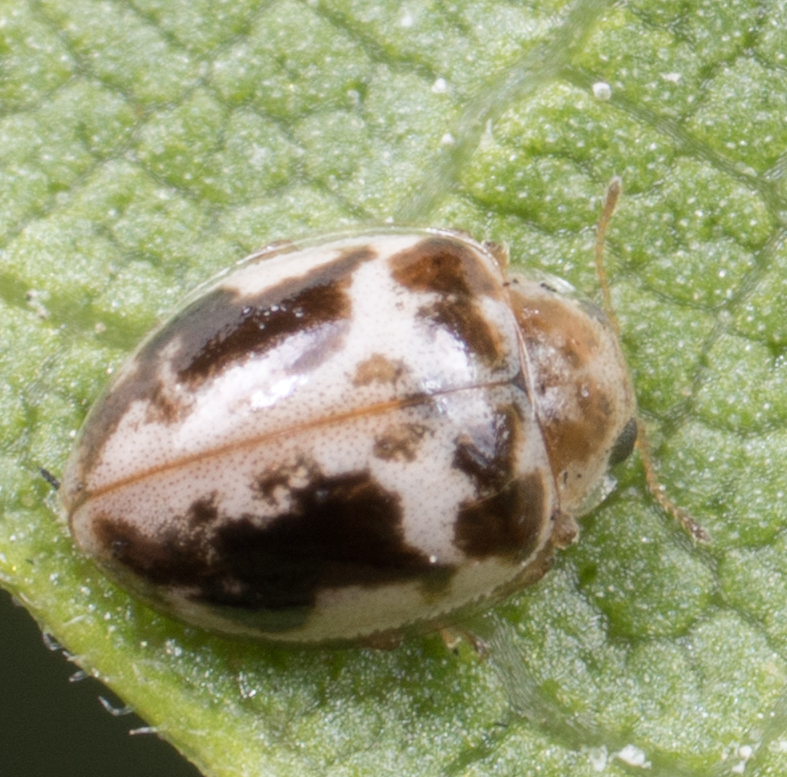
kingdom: Animalia
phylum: Arthropoda
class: Insecta
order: Coleoptera
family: Coccinellidae
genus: Psyllobora
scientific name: Psyllobora renifer
